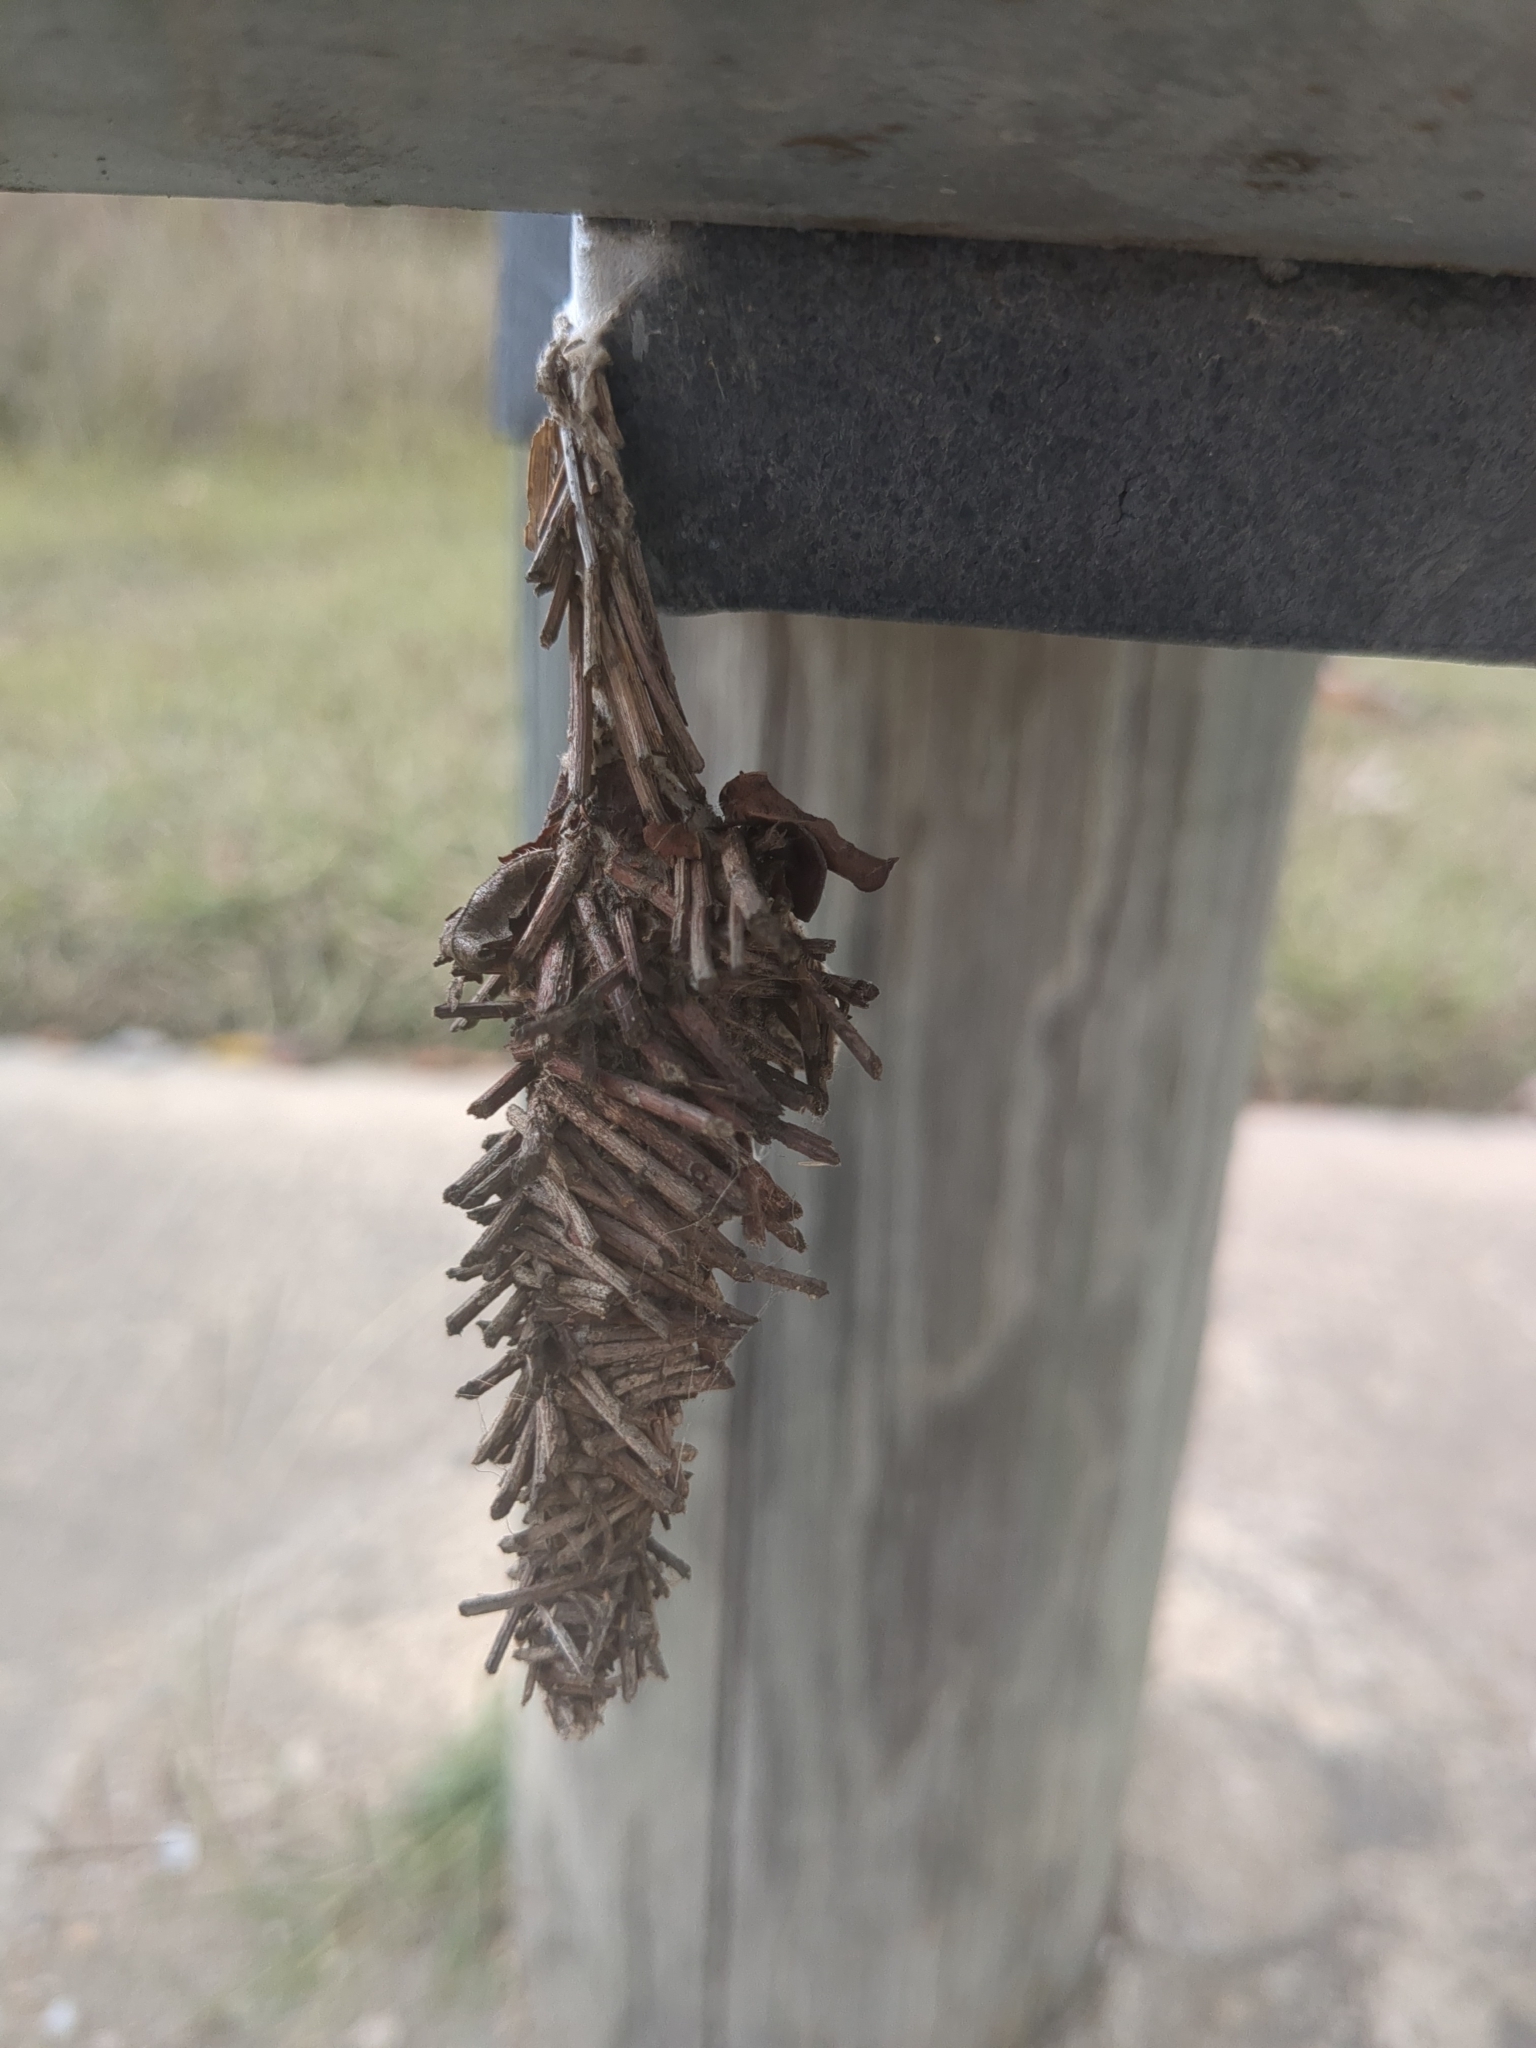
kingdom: Animalia
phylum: Arthropoda
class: Insecta
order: Lepidoptera
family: Psychidae
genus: Oiketicus
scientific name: Oiketicus
